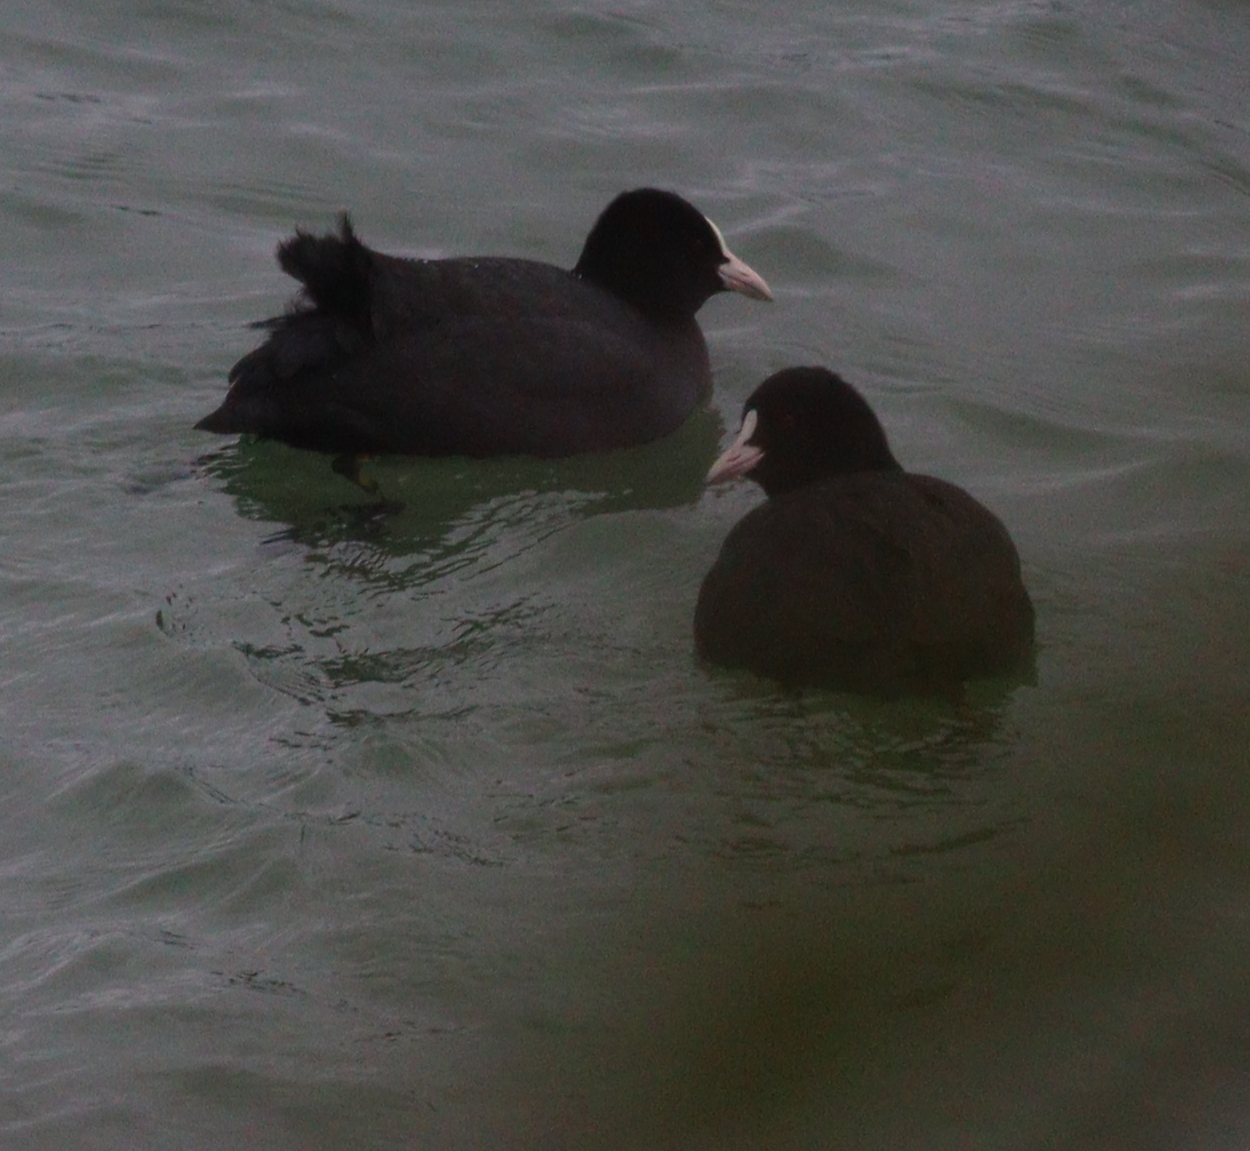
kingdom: Animalia
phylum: Chordata
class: Aves
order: Gruiformes
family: Rallidae
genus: Fulica
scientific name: Fulica atra
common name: Eurasian coot
